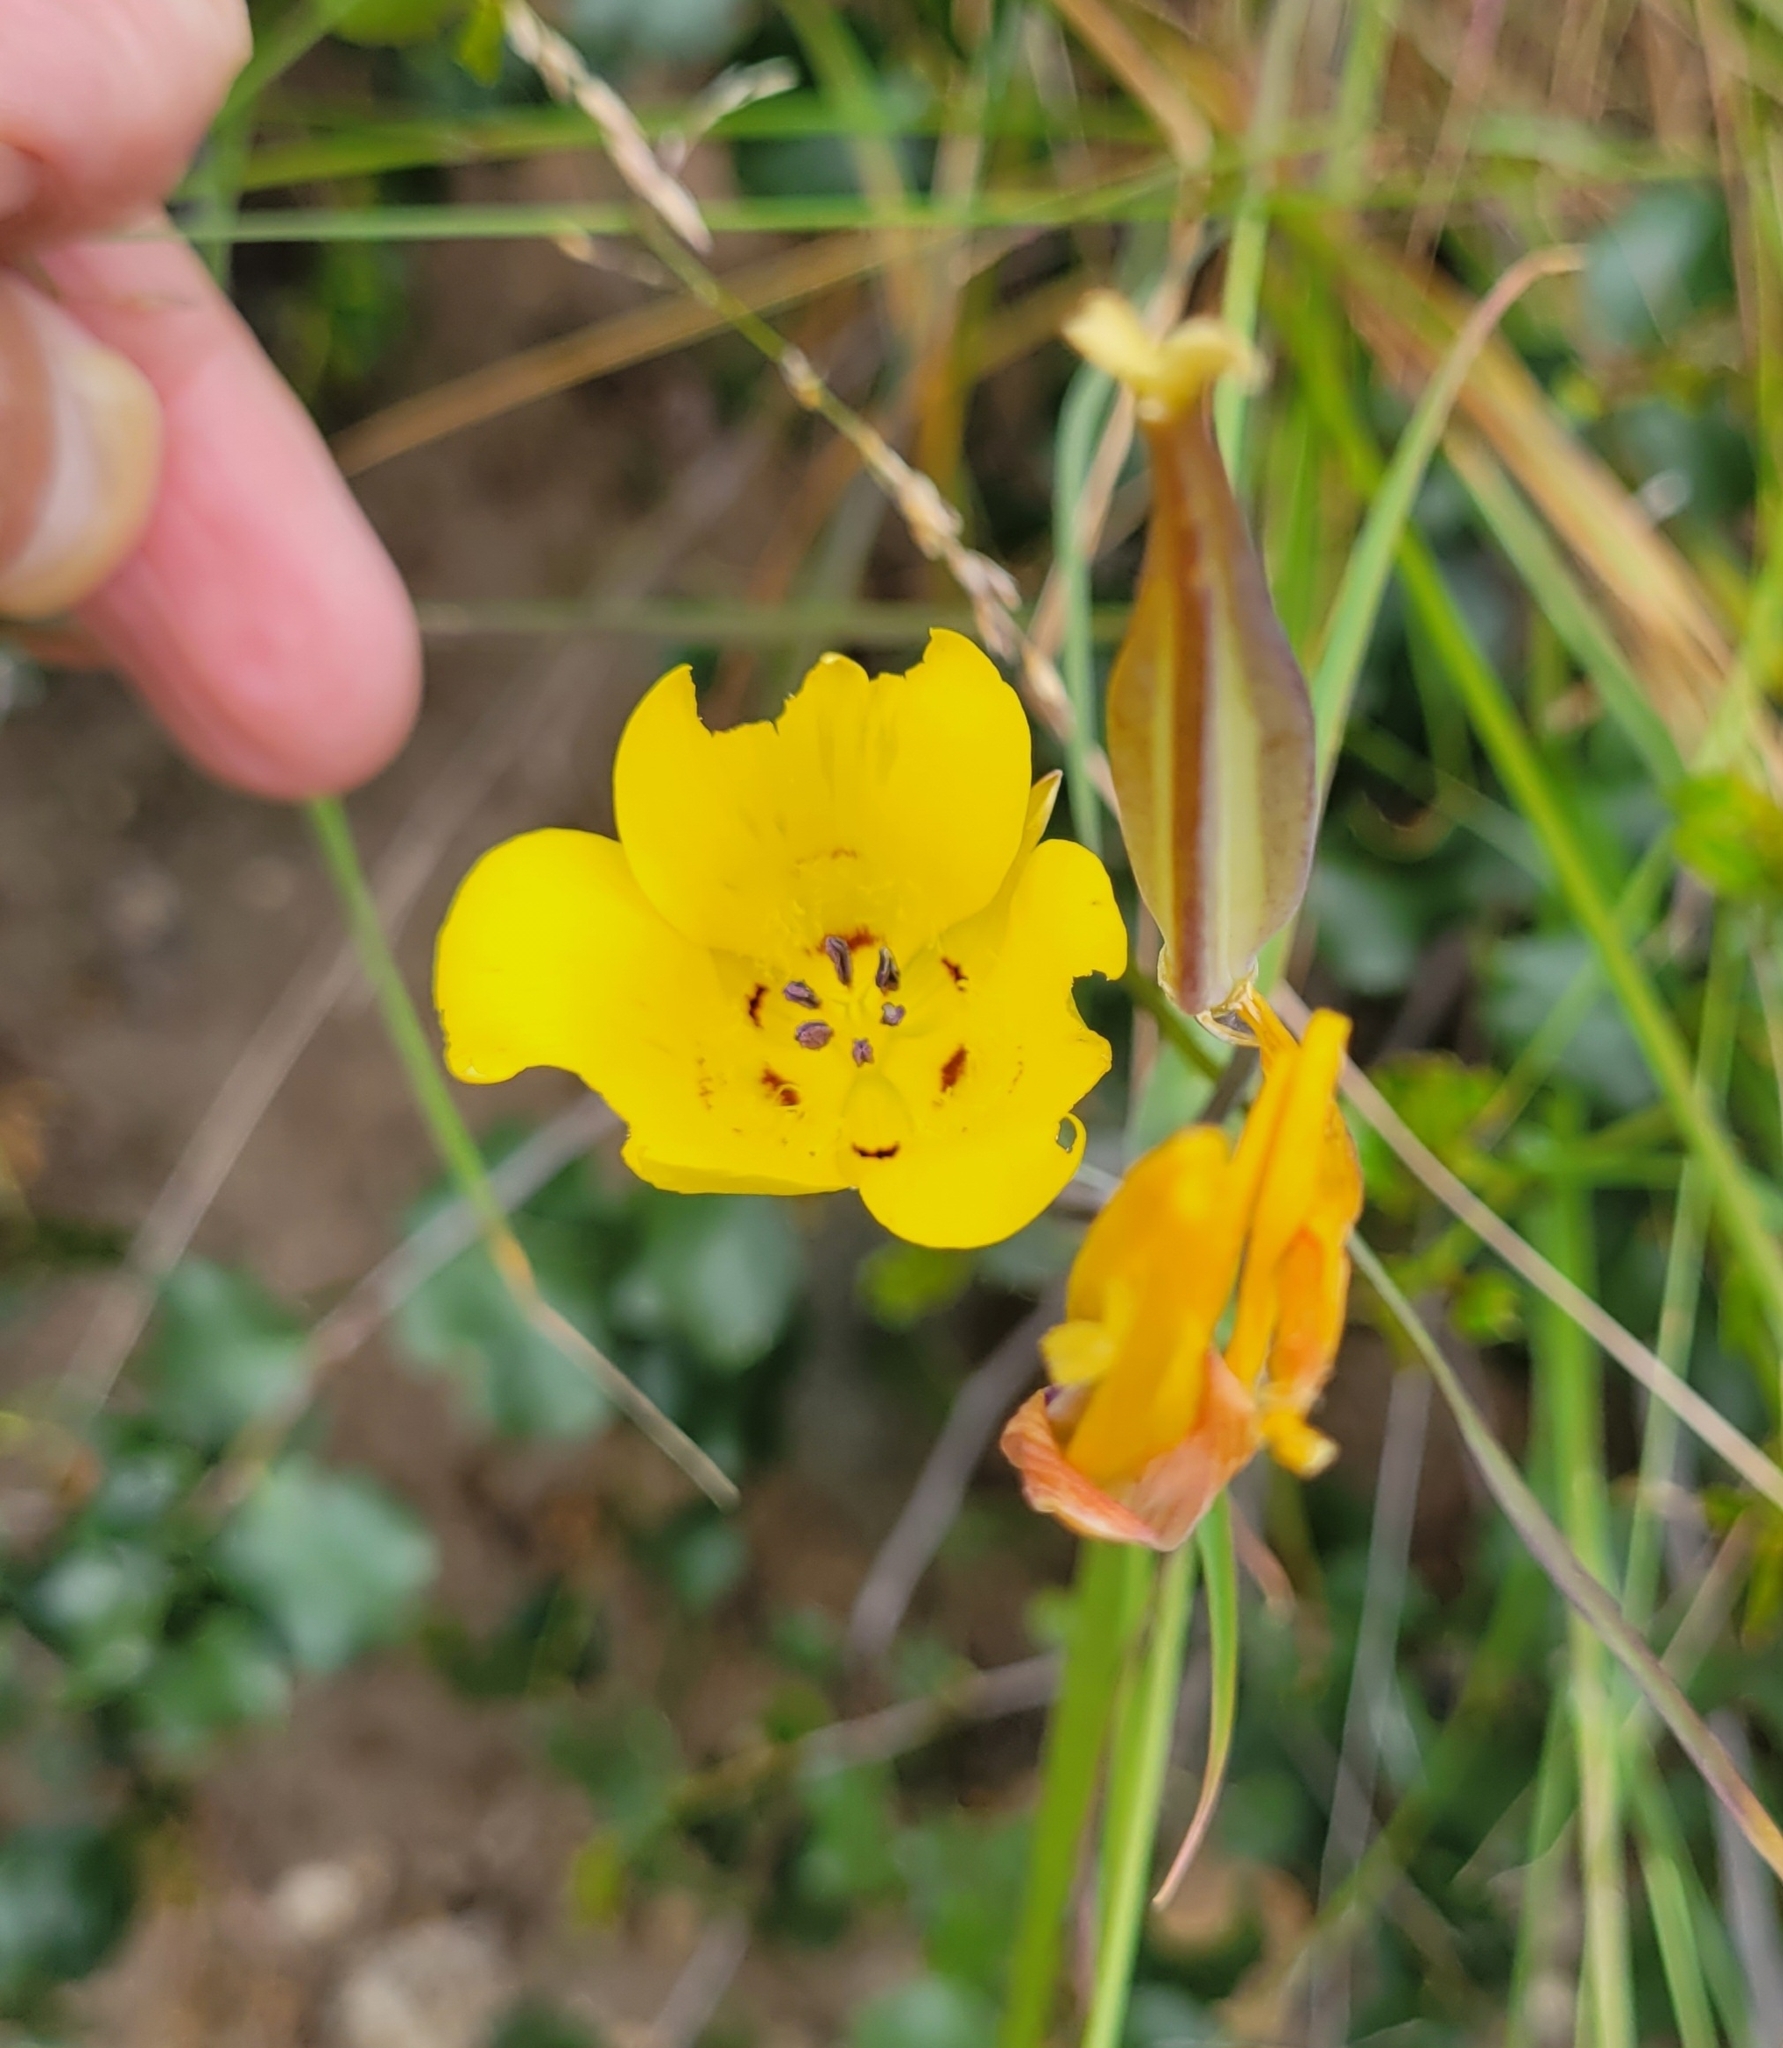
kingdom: Plantae
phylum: Tracheophyta
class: Liliopsida
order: Liliales
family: Liliaceae
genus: Calochortus
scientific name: Calochortus clavatus
